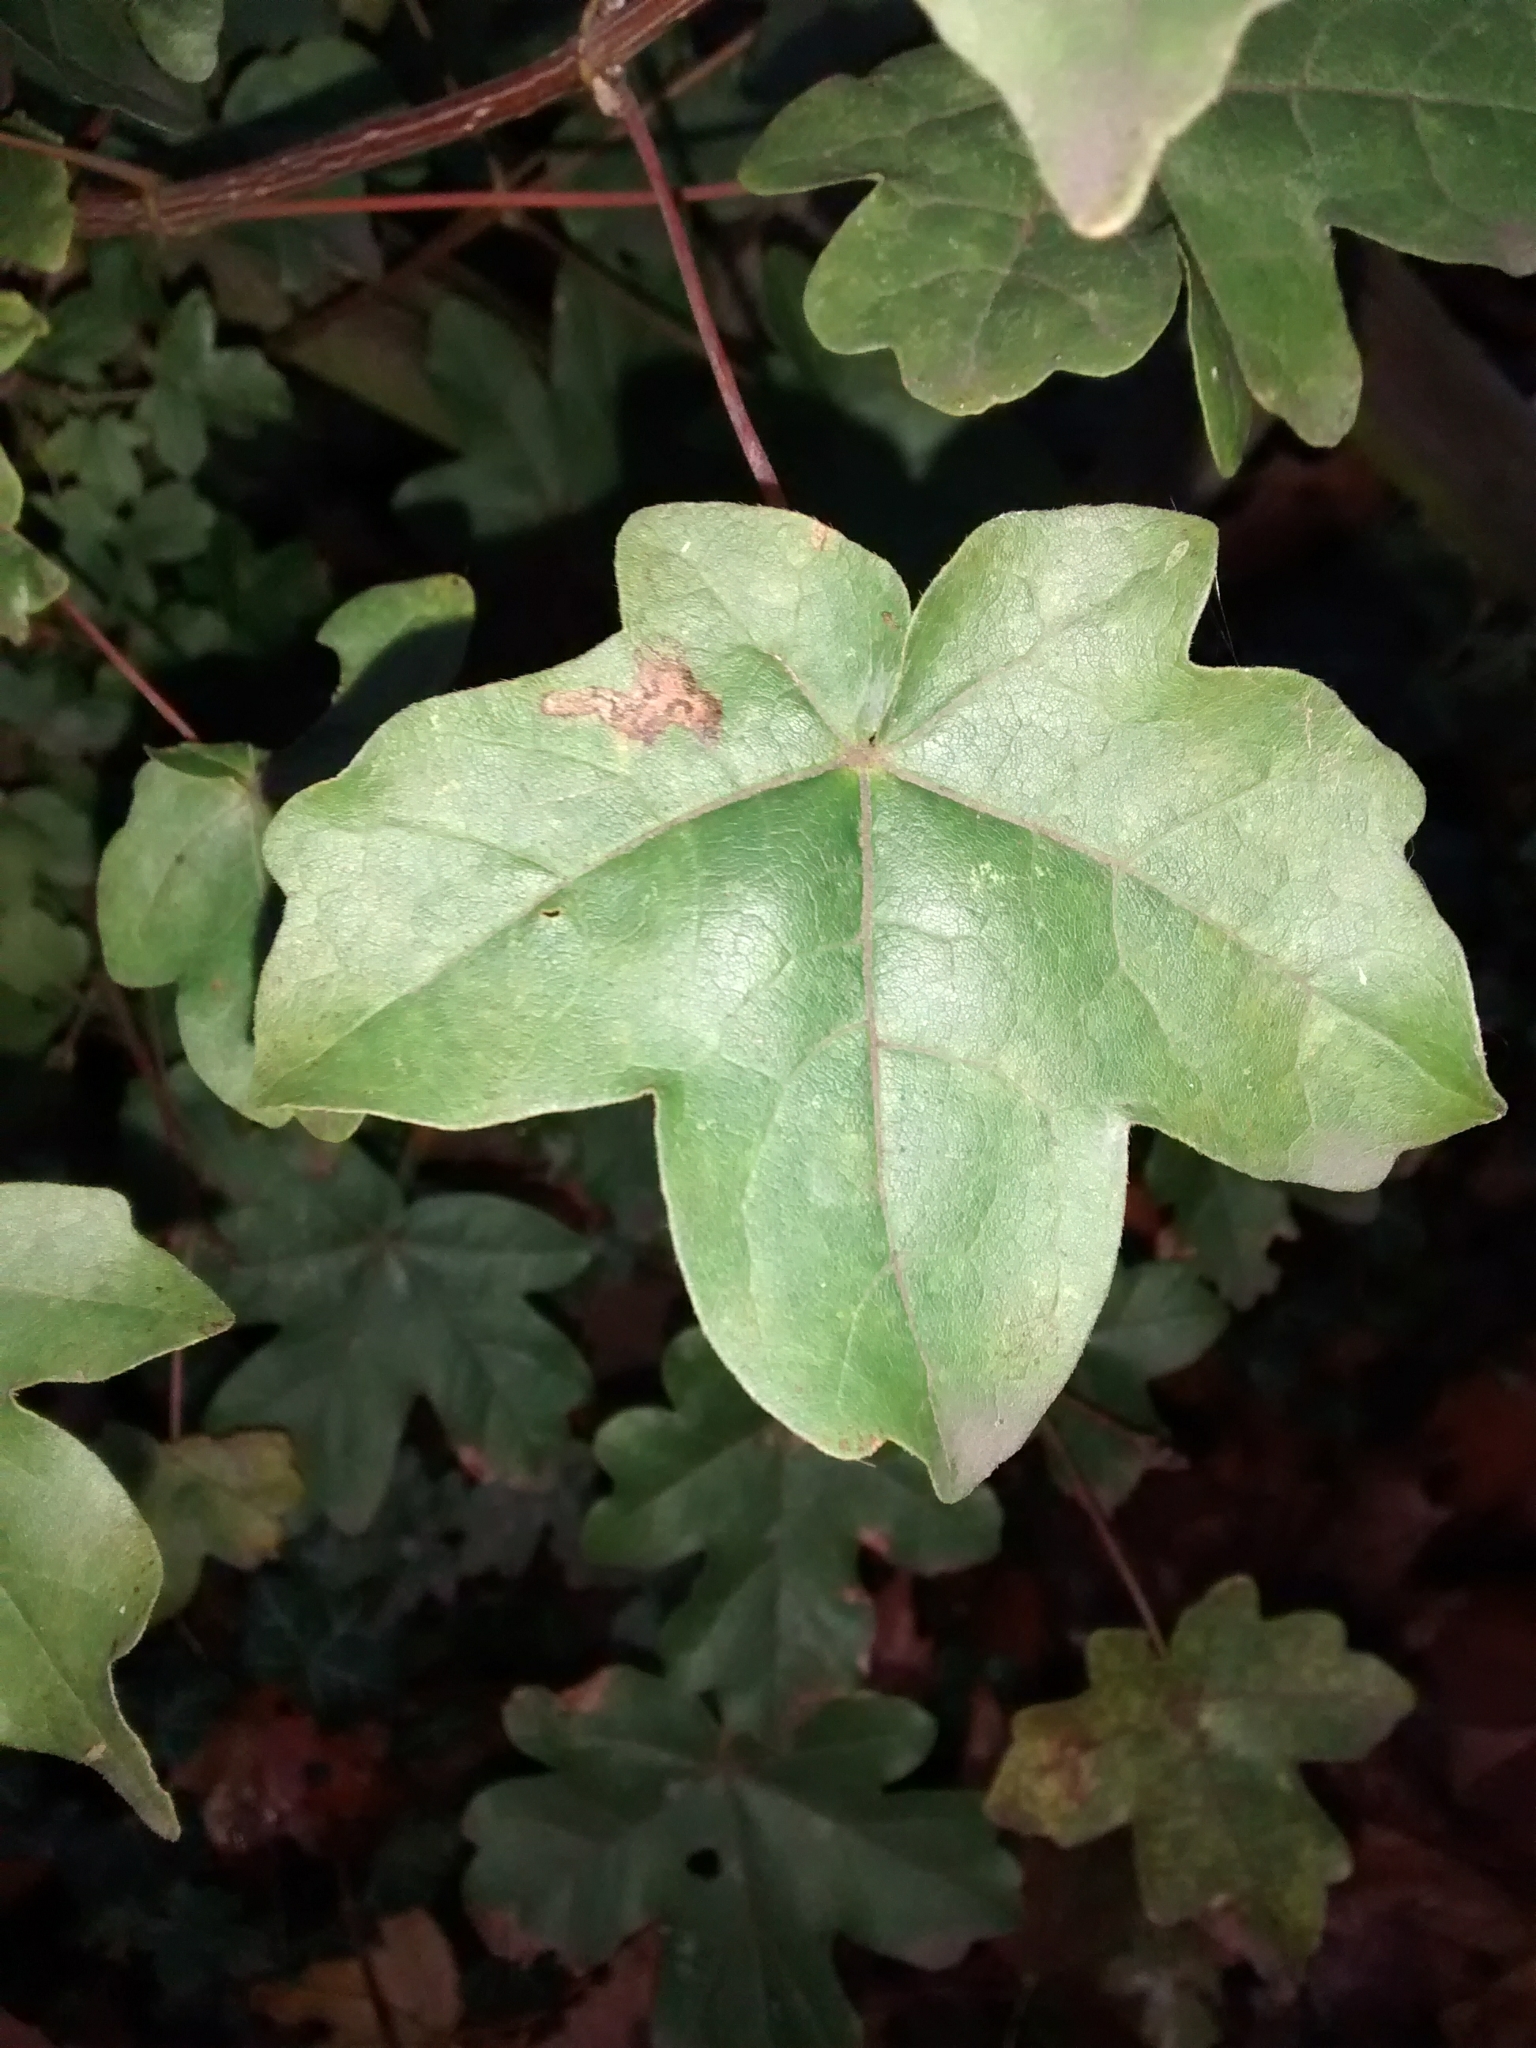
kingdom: Plantae
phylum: Tracheophyta
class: Magnoliopsida
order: Sapindales
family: Sapindaceae
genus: Acer
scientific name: Acer campestre
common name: Field maple
